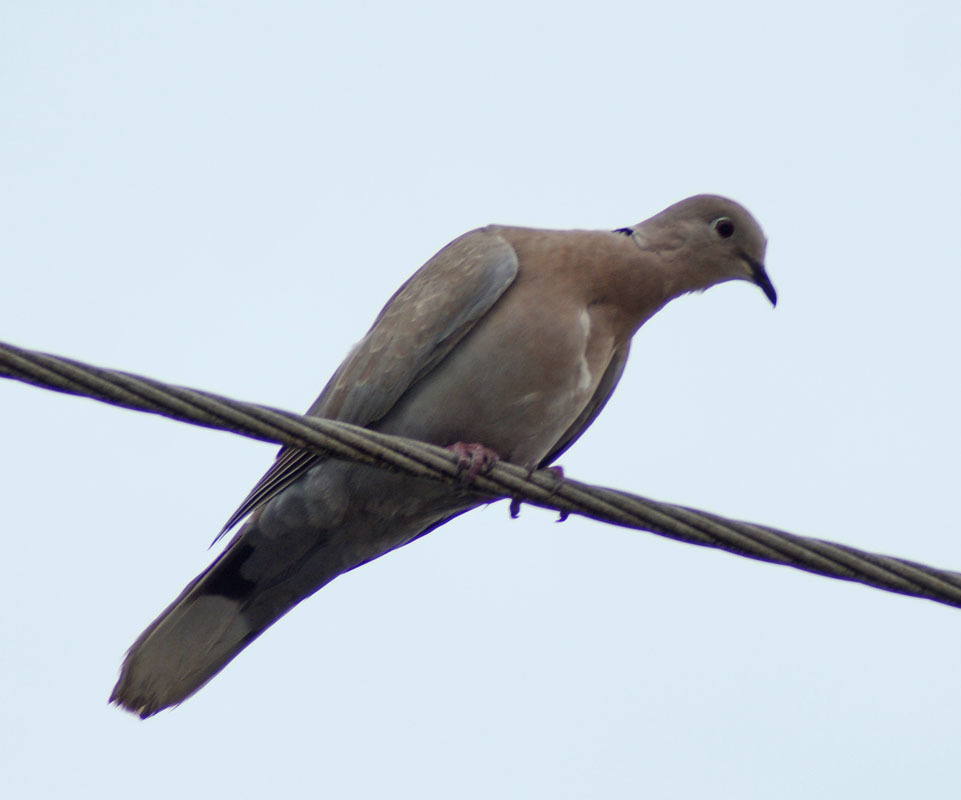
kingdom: Animalia
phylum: Chordata
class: Aves
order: Columbiformes
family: Columbidae
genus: Streptopelia
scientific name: Streptopelia decaocto
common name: Eurasian collared dove
